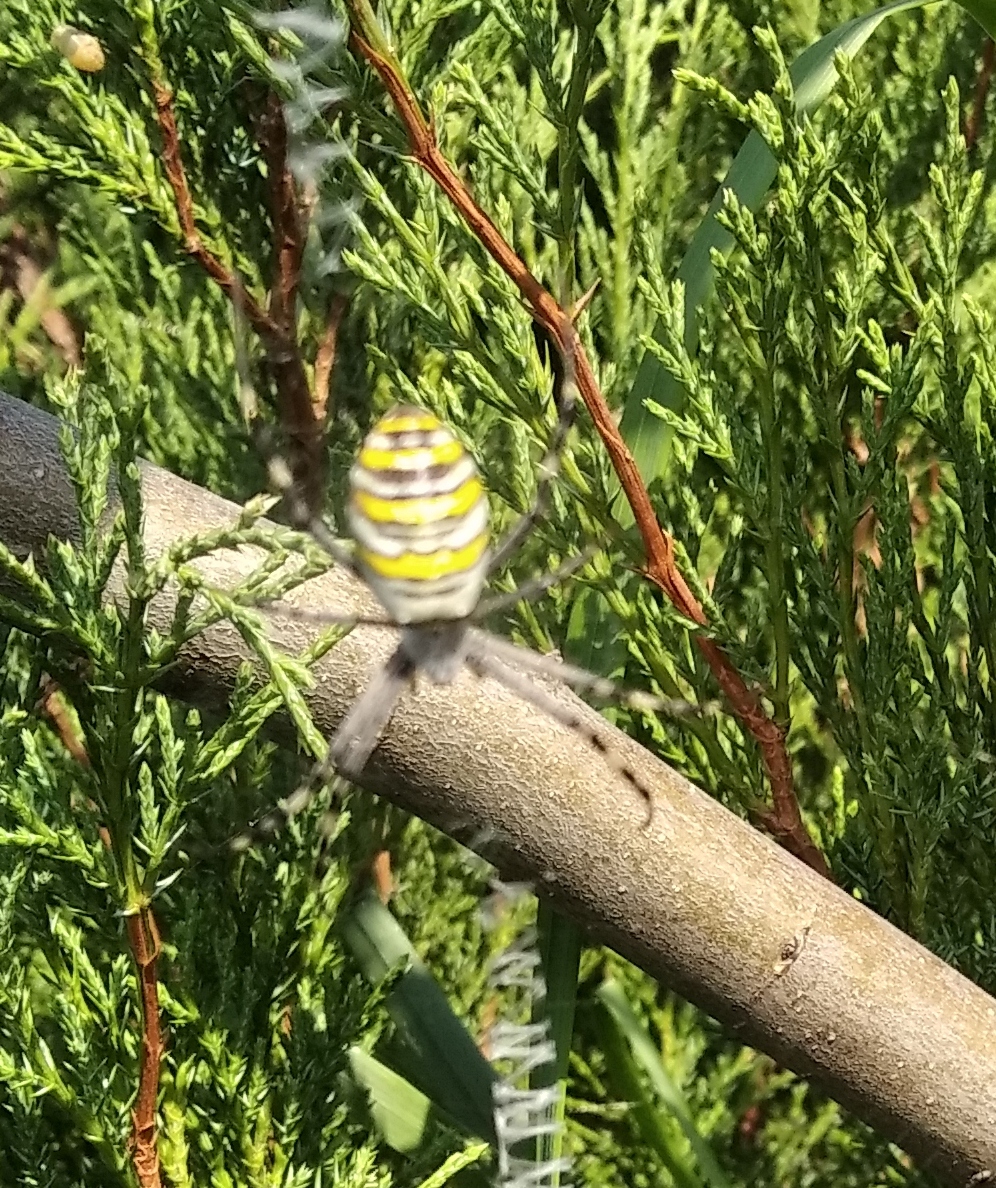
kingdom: Animalia
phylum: Arthropoda
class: Arachnida
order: Araneae
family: Araneidae
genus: Argiope
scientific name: Argiope bruennichi
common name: Wasp spider
